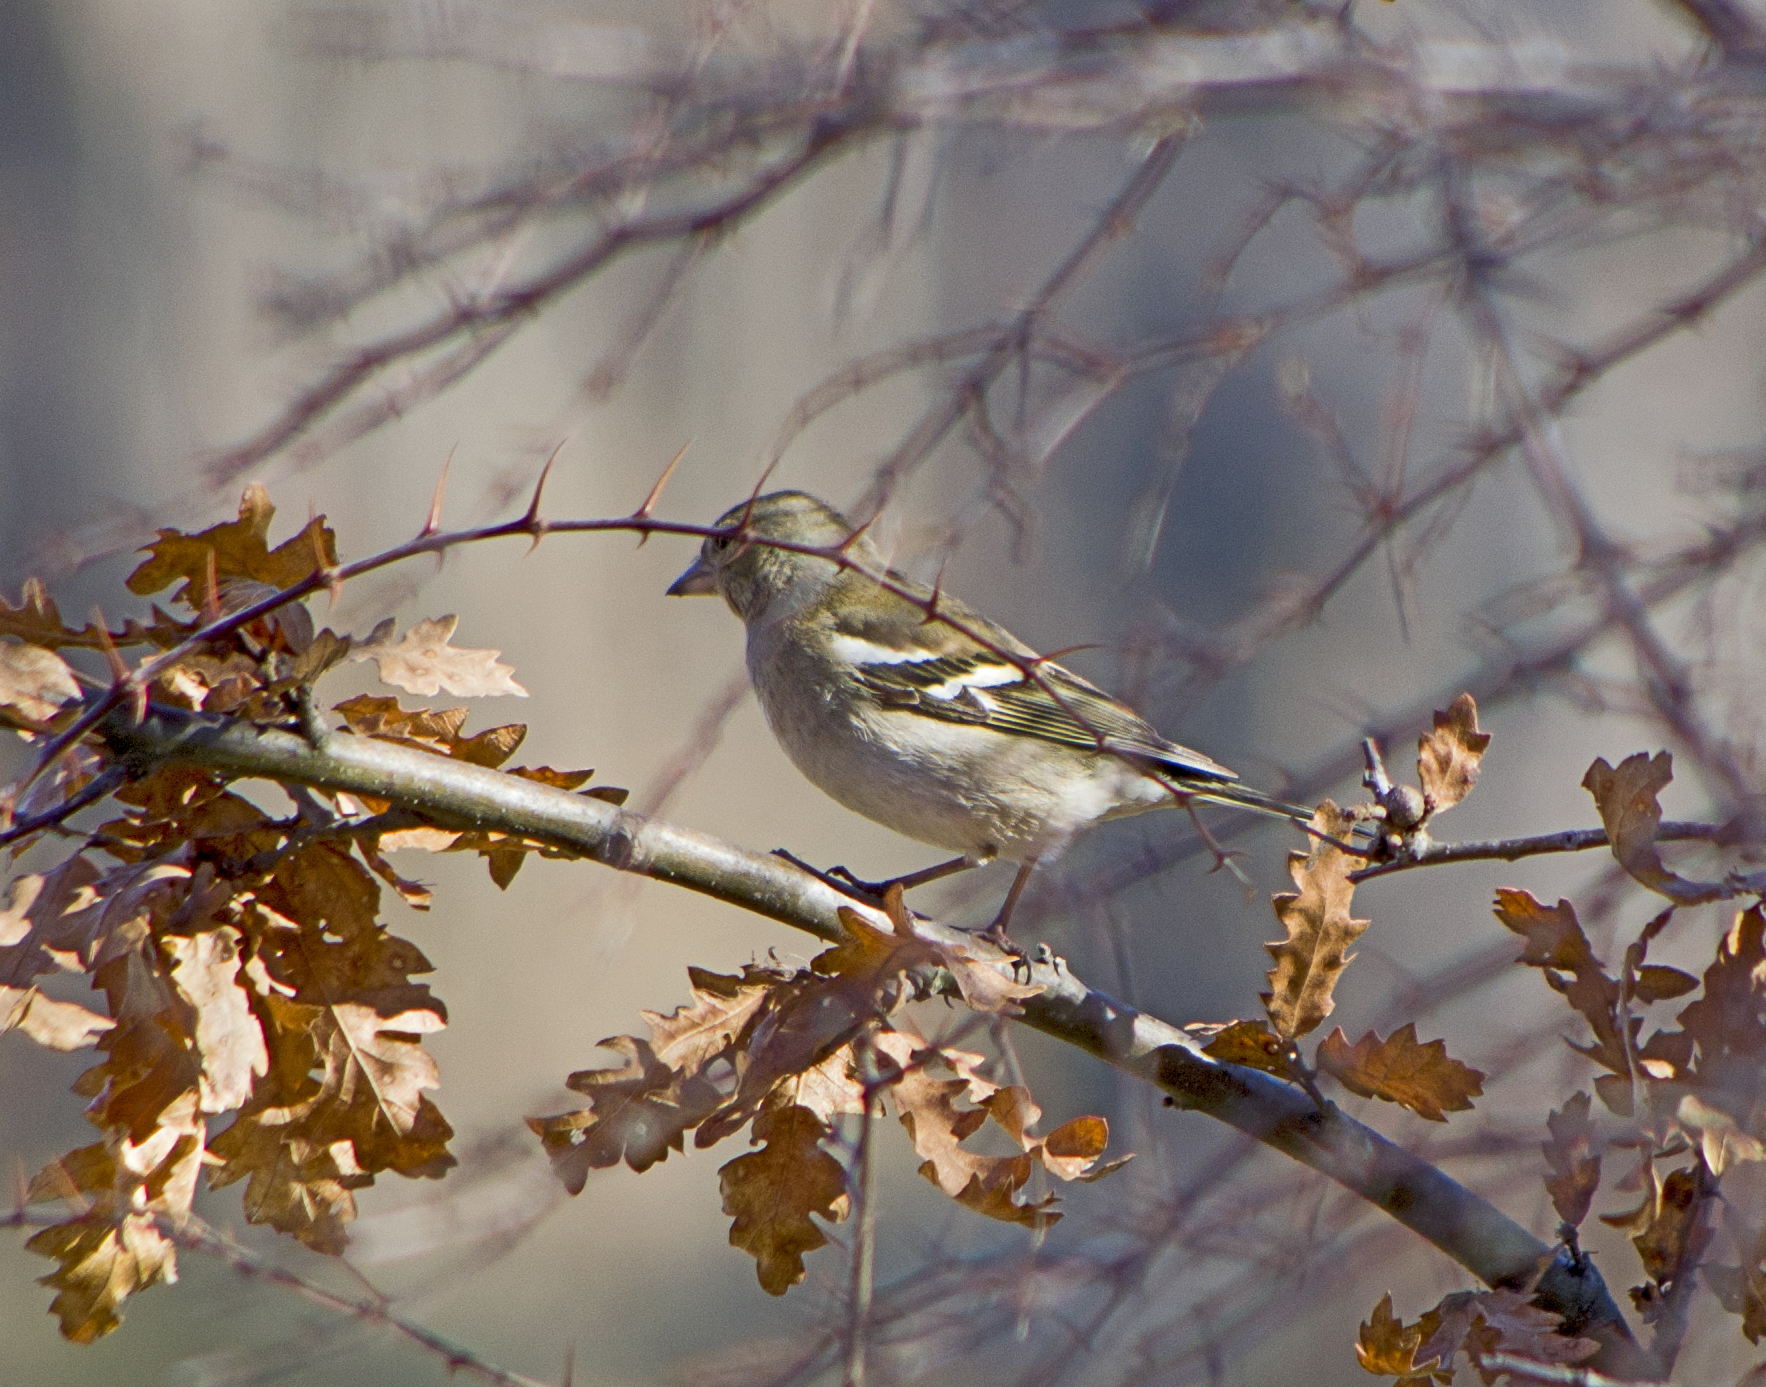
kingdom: Animalia
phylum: Chordata
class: Aves
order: Passeriformes
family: Fringillidae
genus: Fringilla
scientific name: Fringilla coelebs
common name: Common chaffinch
